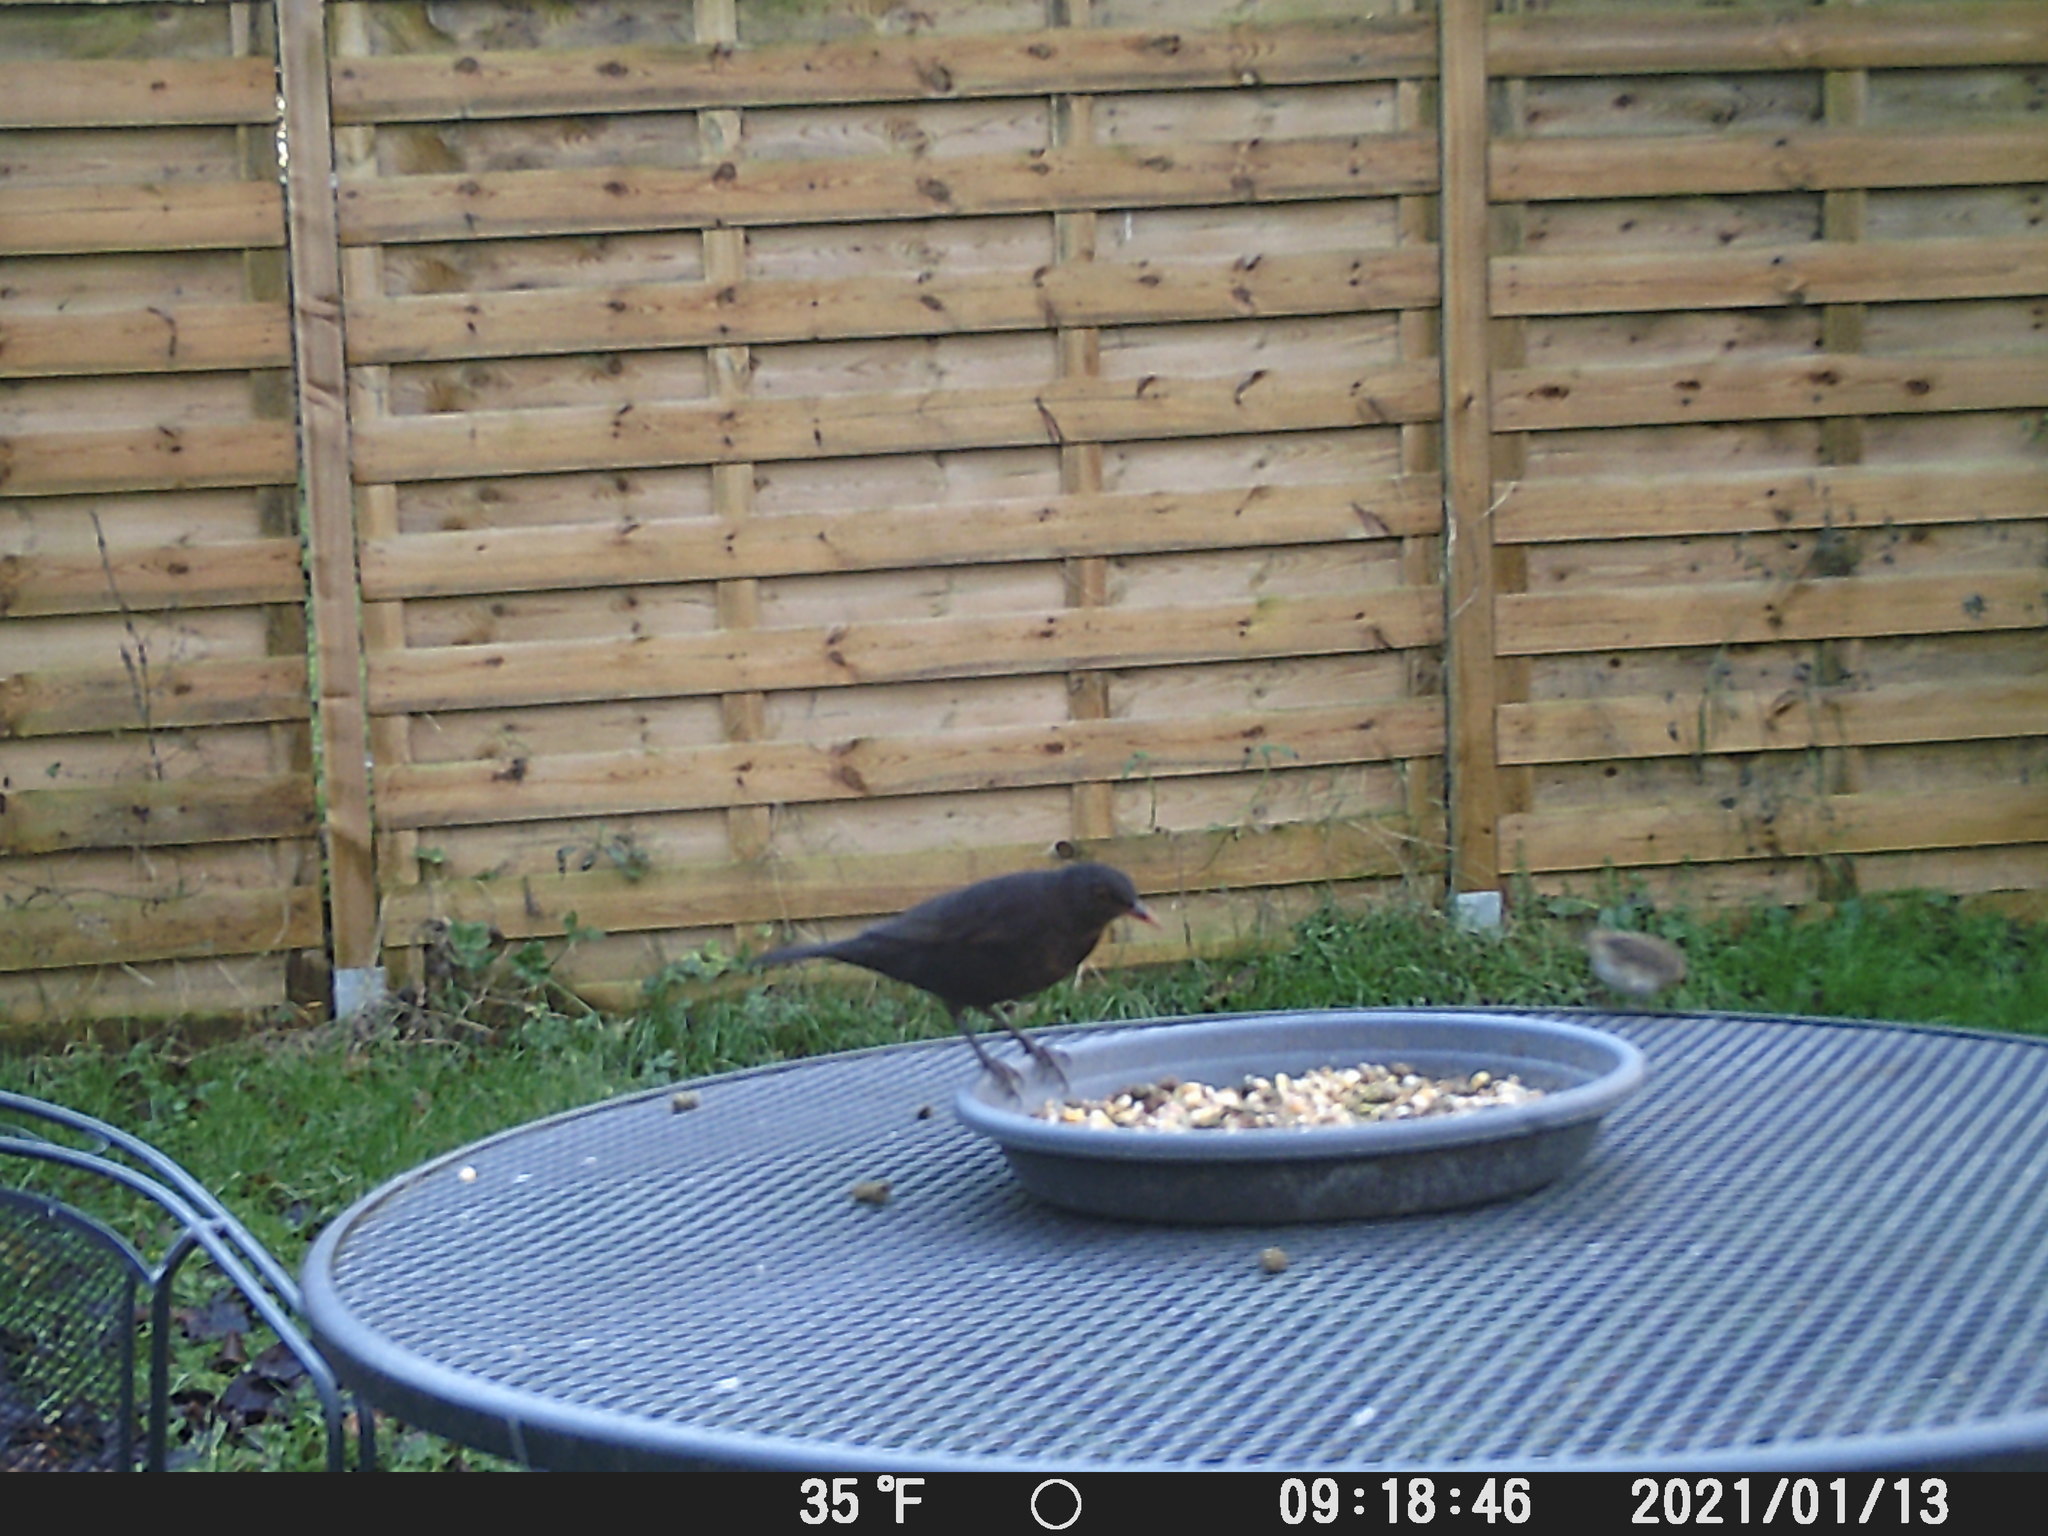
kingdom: Animalia
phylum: Chordata
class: Aves
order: Passeriformes
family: Turdidae
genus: Turdus
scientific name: Turdus merula
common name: Common blackbird
